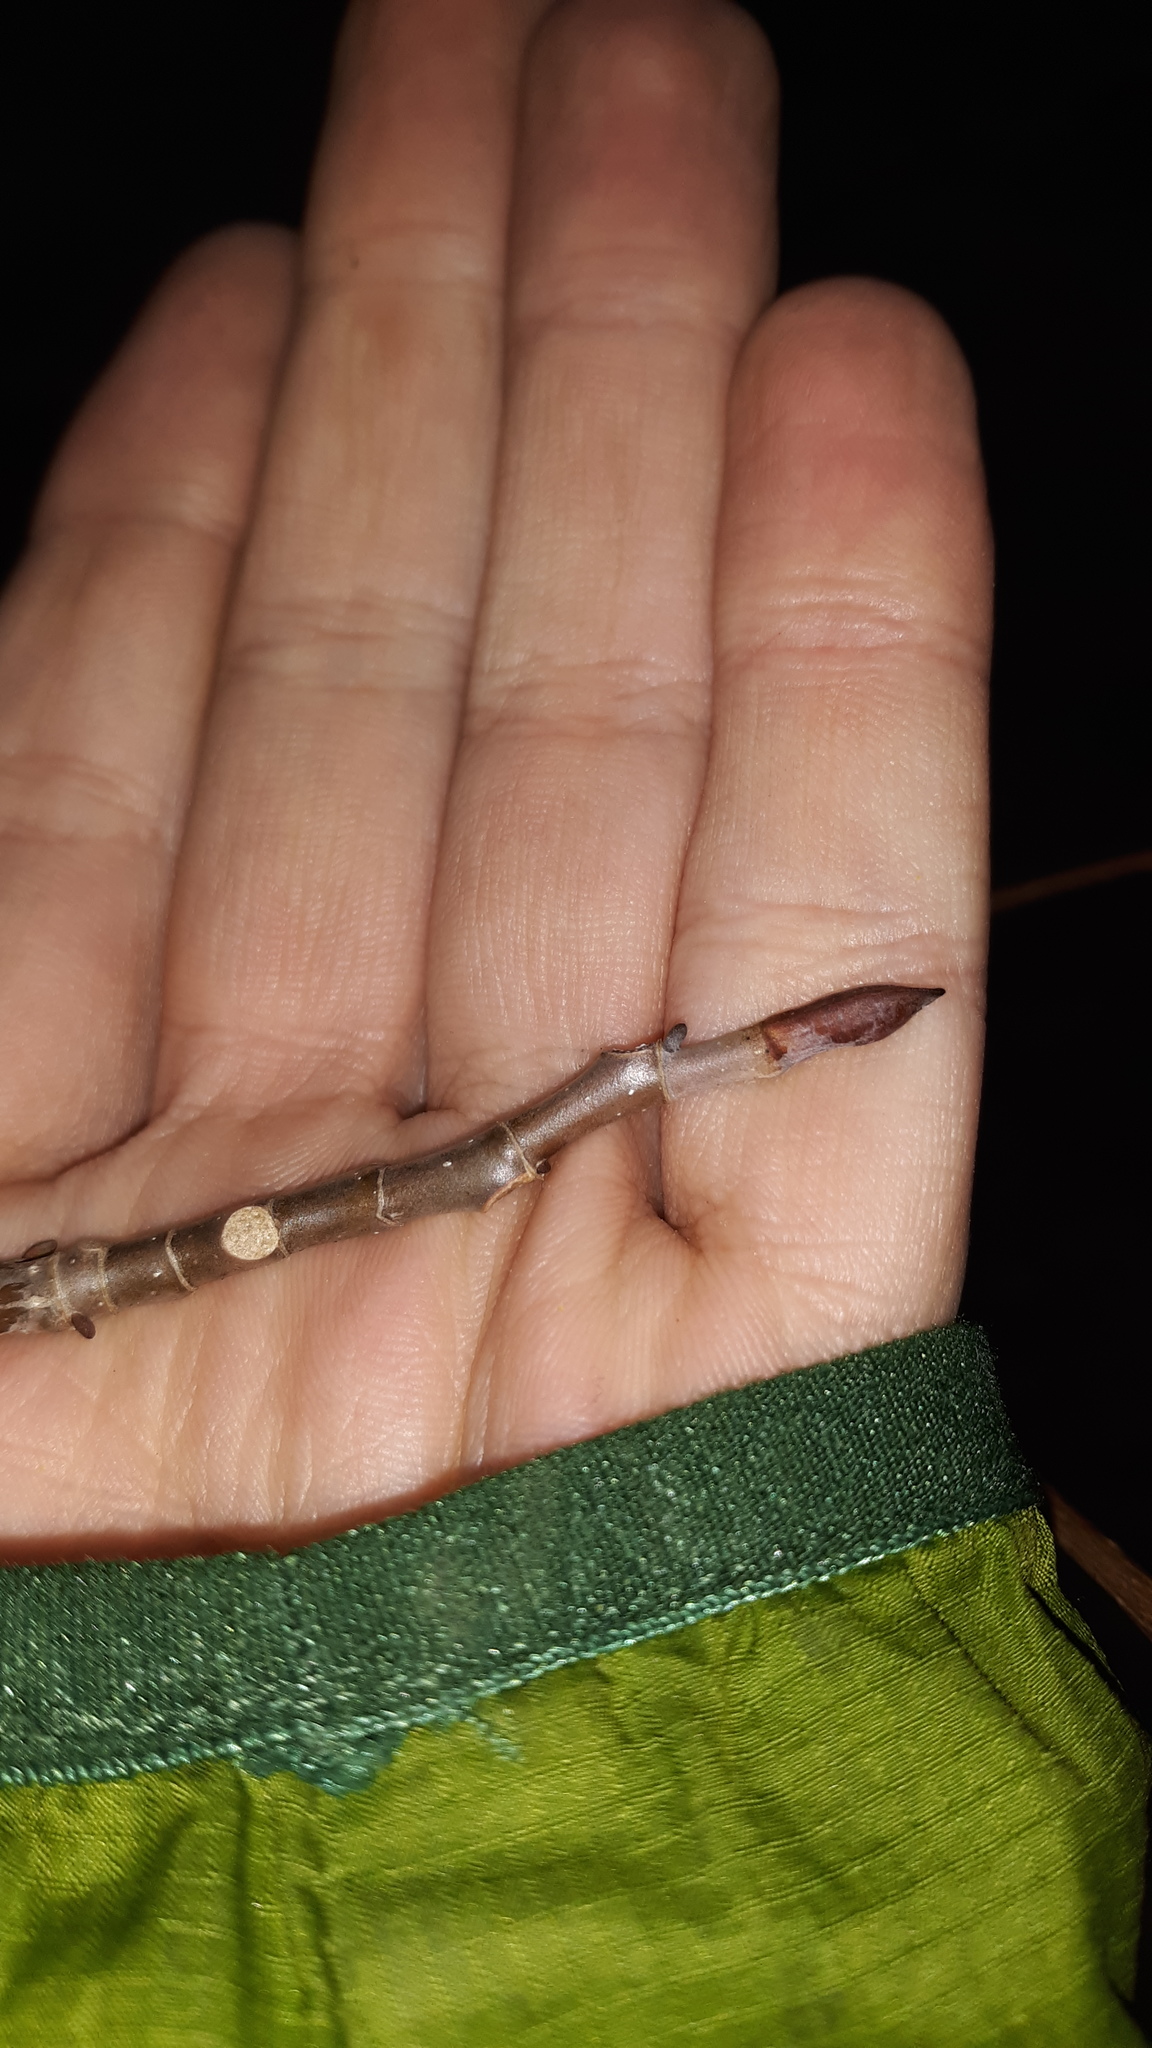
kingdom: Plantae
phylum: Tracheophyta
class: Magnoliopsida
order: Magnoliales
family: Magnoliaceae
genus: Liriodendron
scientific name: Liriodendron tulipifera
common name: Tulip tree
